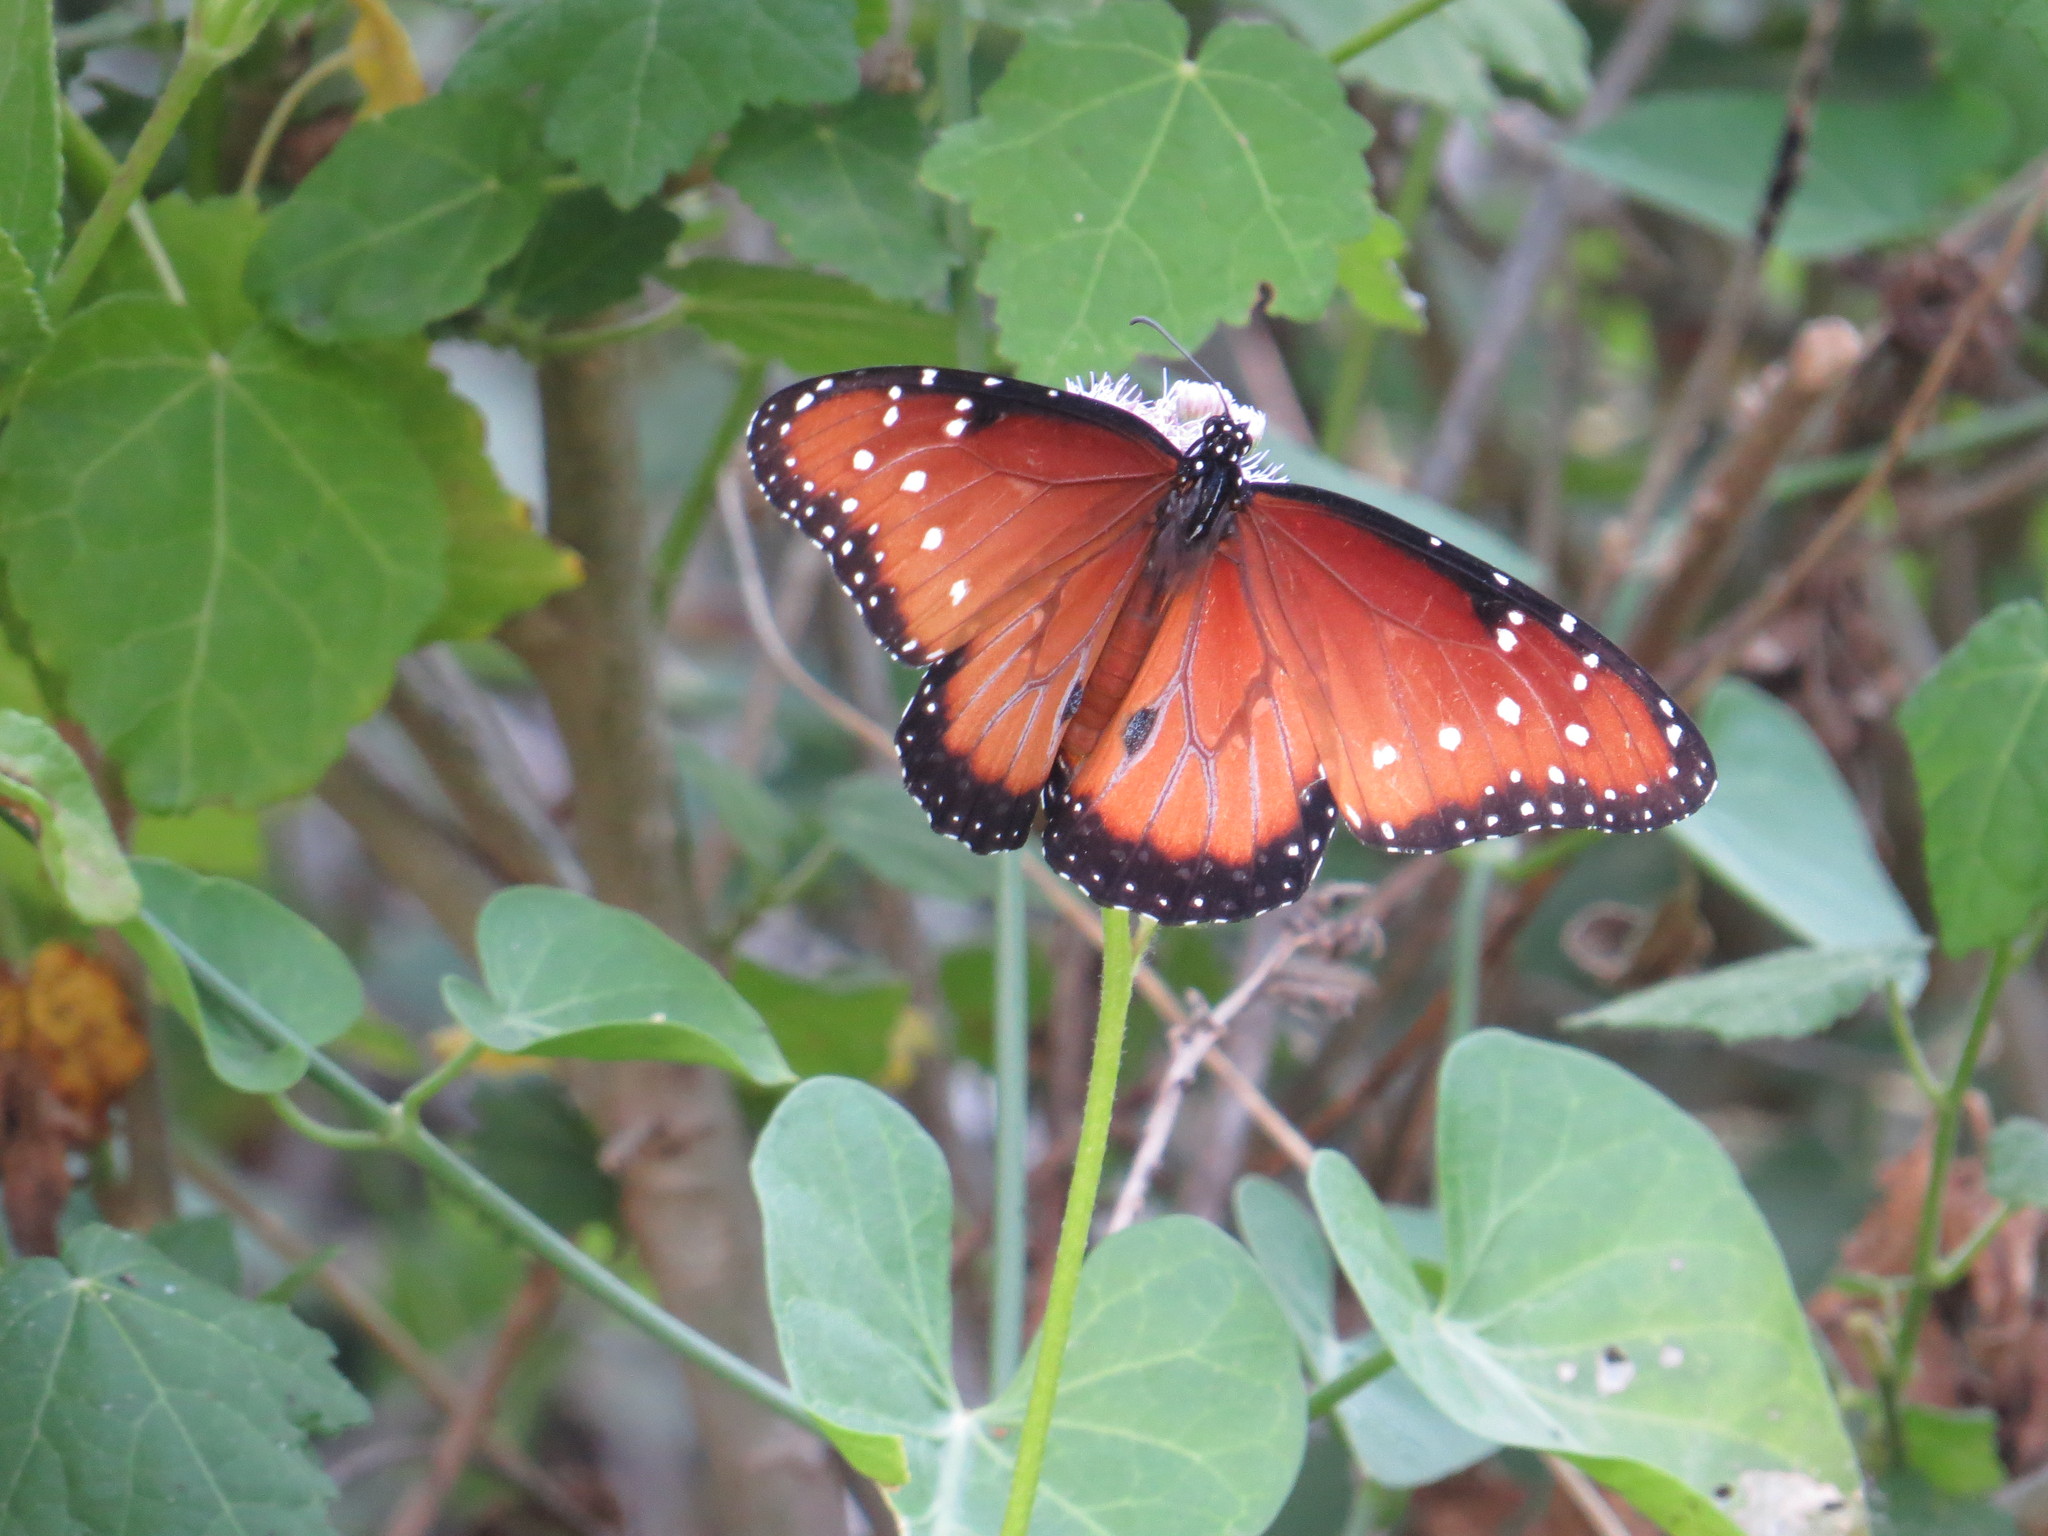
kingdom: Animalia
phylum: Arthropoda
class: Insecta
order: Lepidoptera
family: Nymphalidae
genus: Danaus
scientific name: Danaus gilippus
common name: Queen
